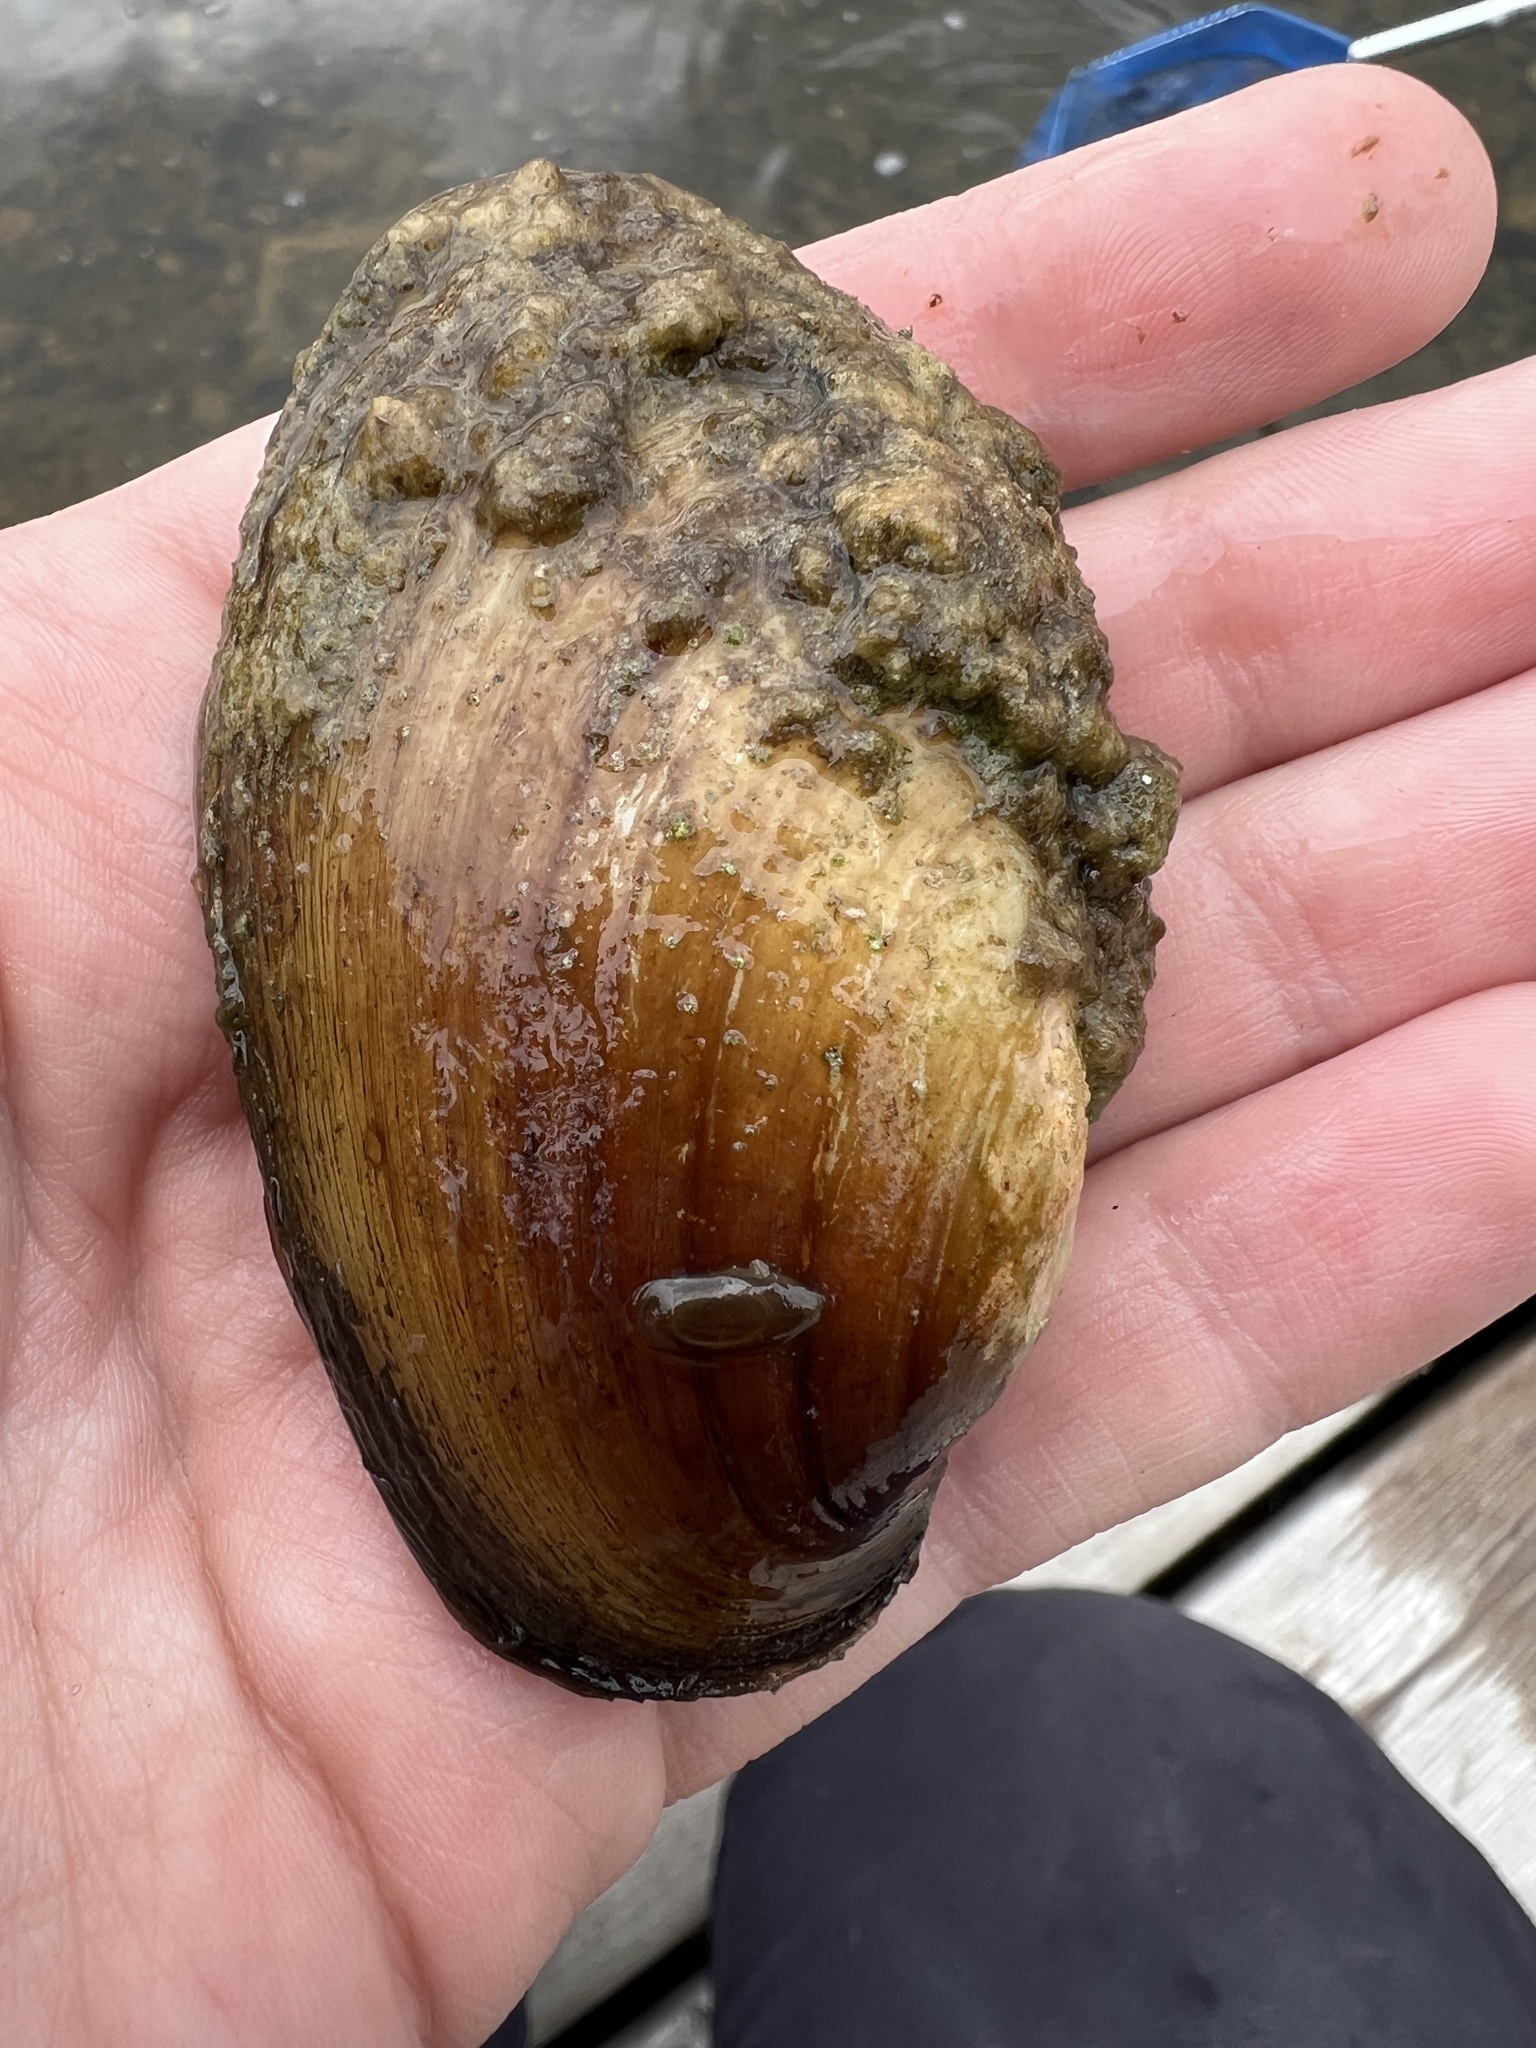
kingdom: Animalia
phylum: Mollusca
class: Bivalvia
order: Unionida
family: Unionidae
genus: Lampsilis
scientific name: Lampsilis siliquoidea
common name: Fatmucket
